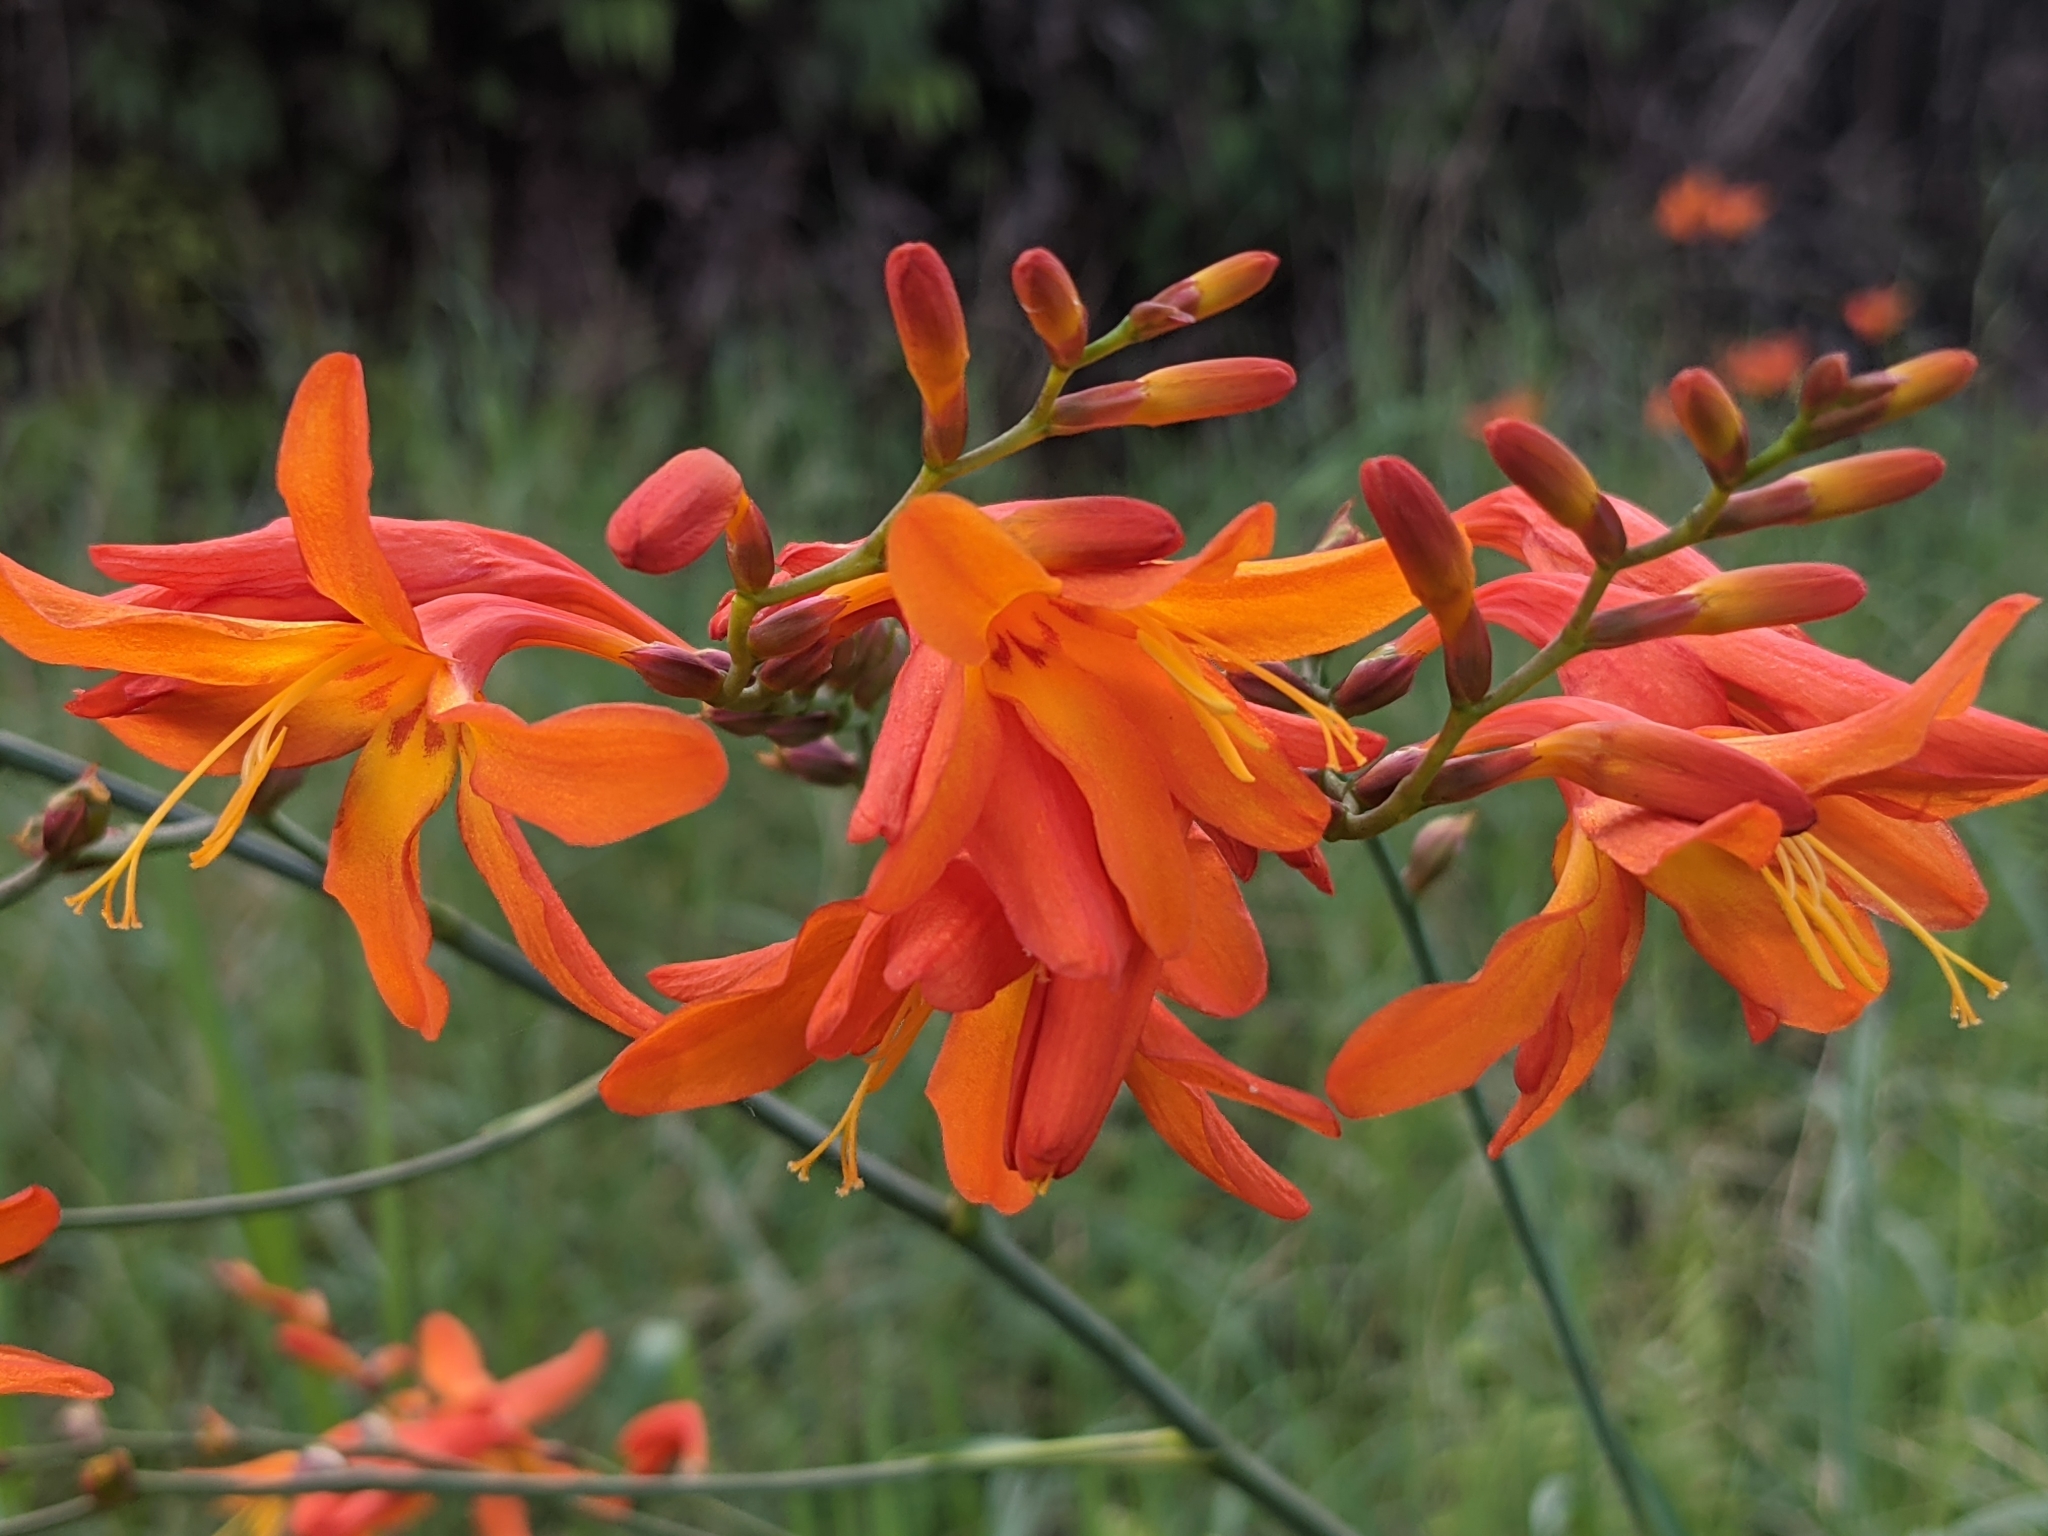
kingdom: Plantae
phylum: Tracheophyta
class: Liliopsida
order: Asparagales
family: Iridaceae
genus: Crocosmia
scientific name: Crocosmia crocosmiiflora
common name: Montbretia
